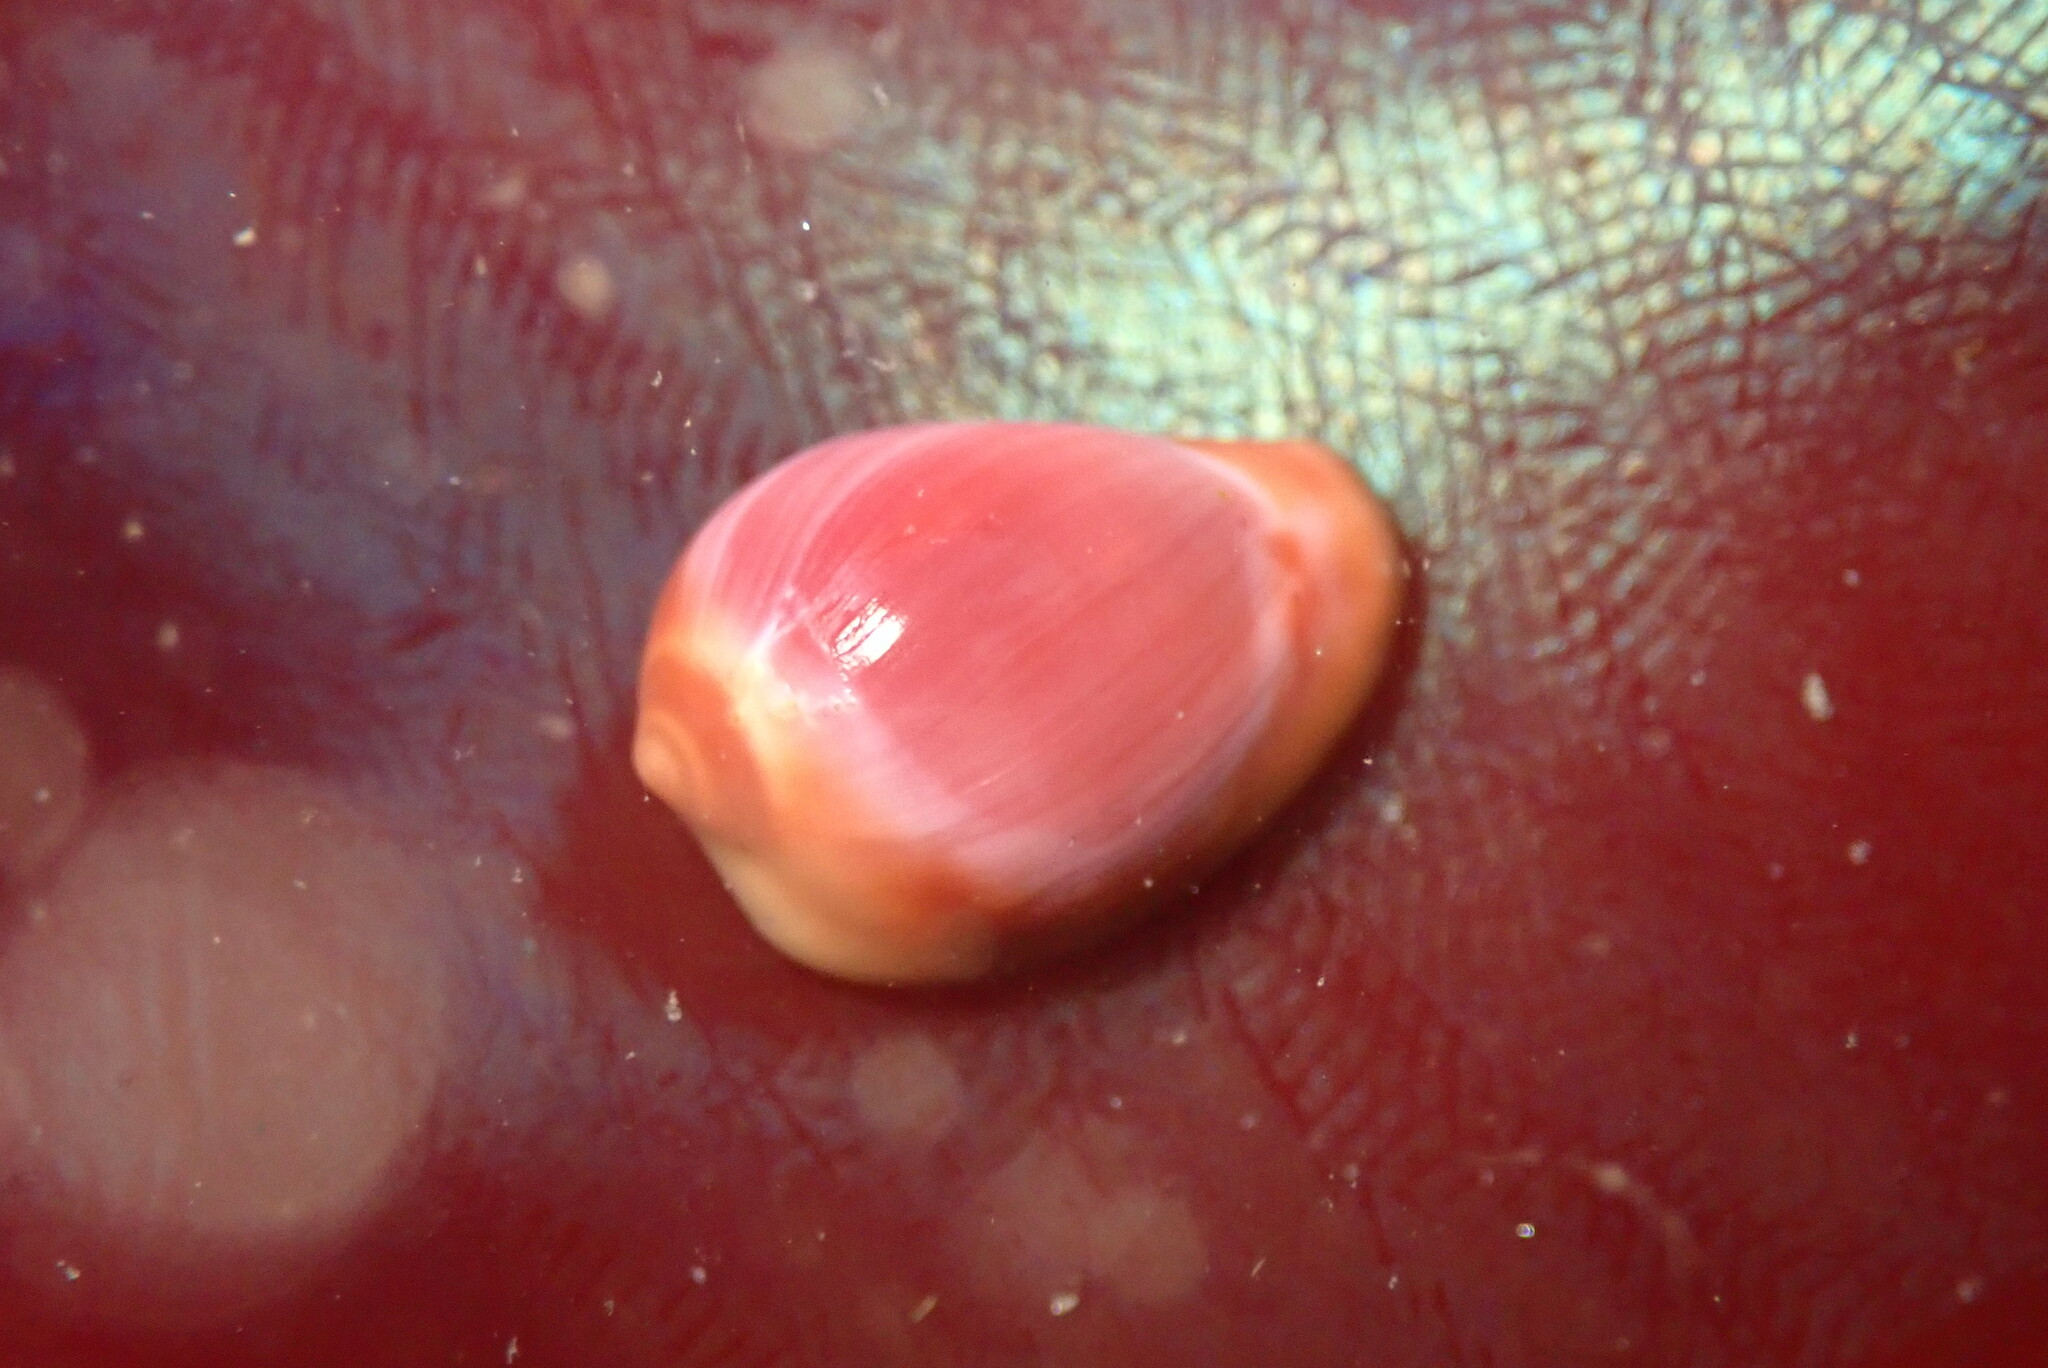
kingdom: Animalia
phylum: Mollusca
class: Gastropoda
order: Littorinimorpha
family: Eratoidae
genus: Hespererato
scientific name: Hespererato vitellina
